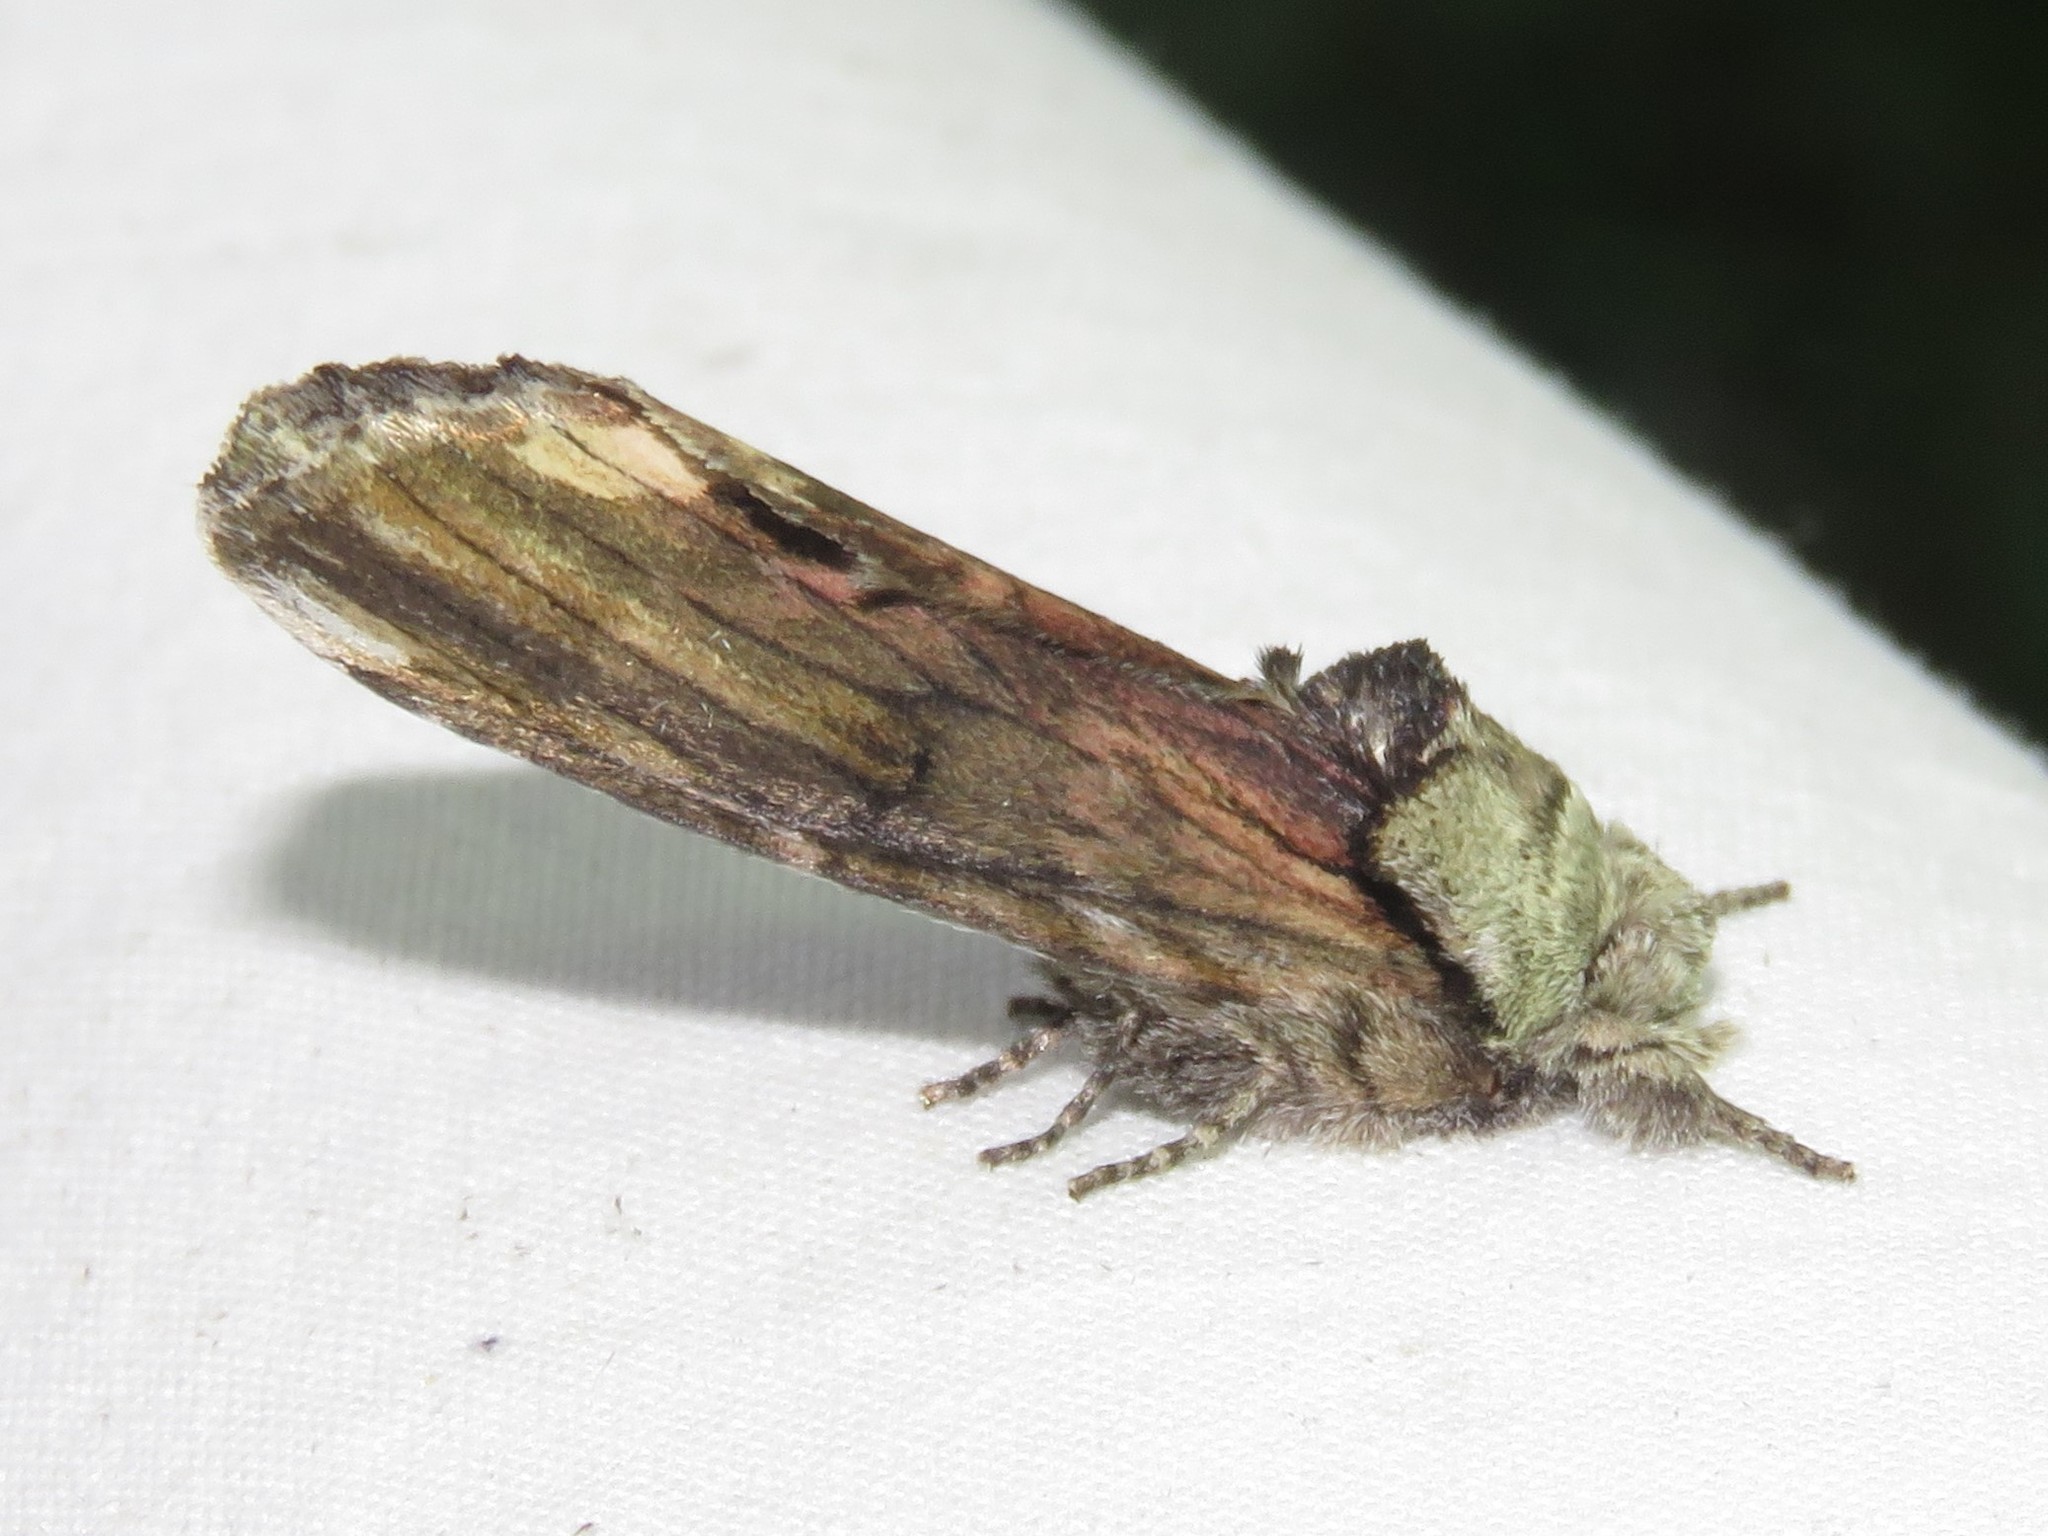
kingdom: Animalia
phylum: Arthropoda
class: Insecta
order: Lepidoptera
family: Notodontidae
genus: Schizura
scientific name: Schizura
